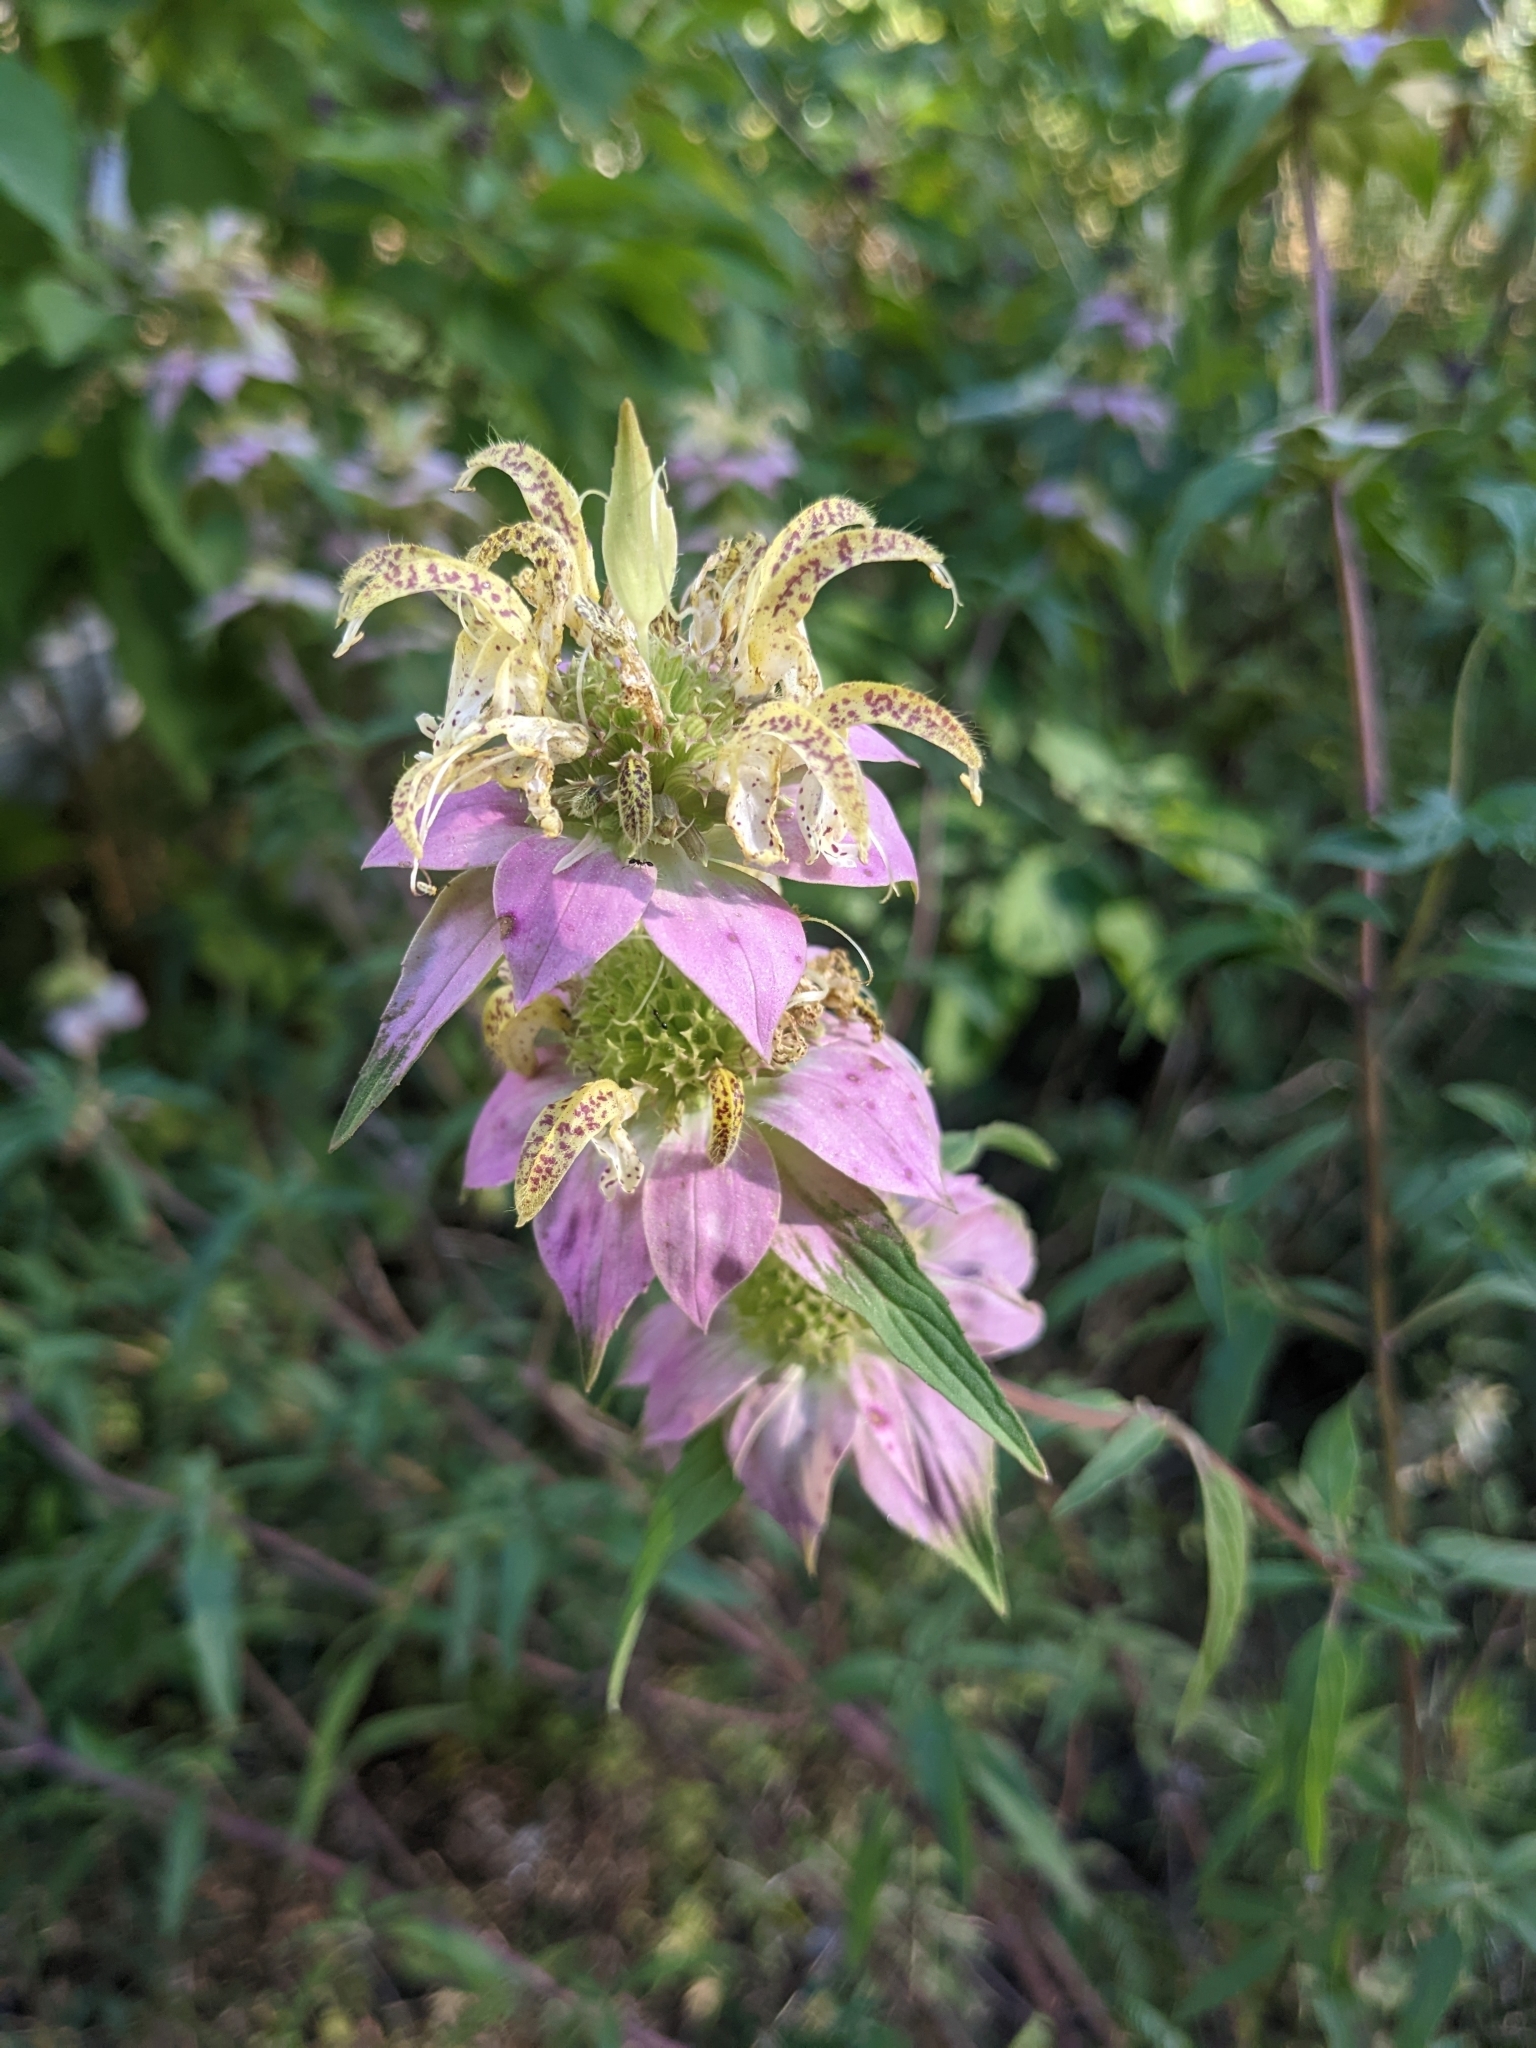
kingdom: Plantae
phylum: Tracheophyta
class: Magnoliopsida
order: Lamiales
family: Lamiaceae
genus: Monarda
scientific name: Monarda punctata
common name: Dotted monarda
